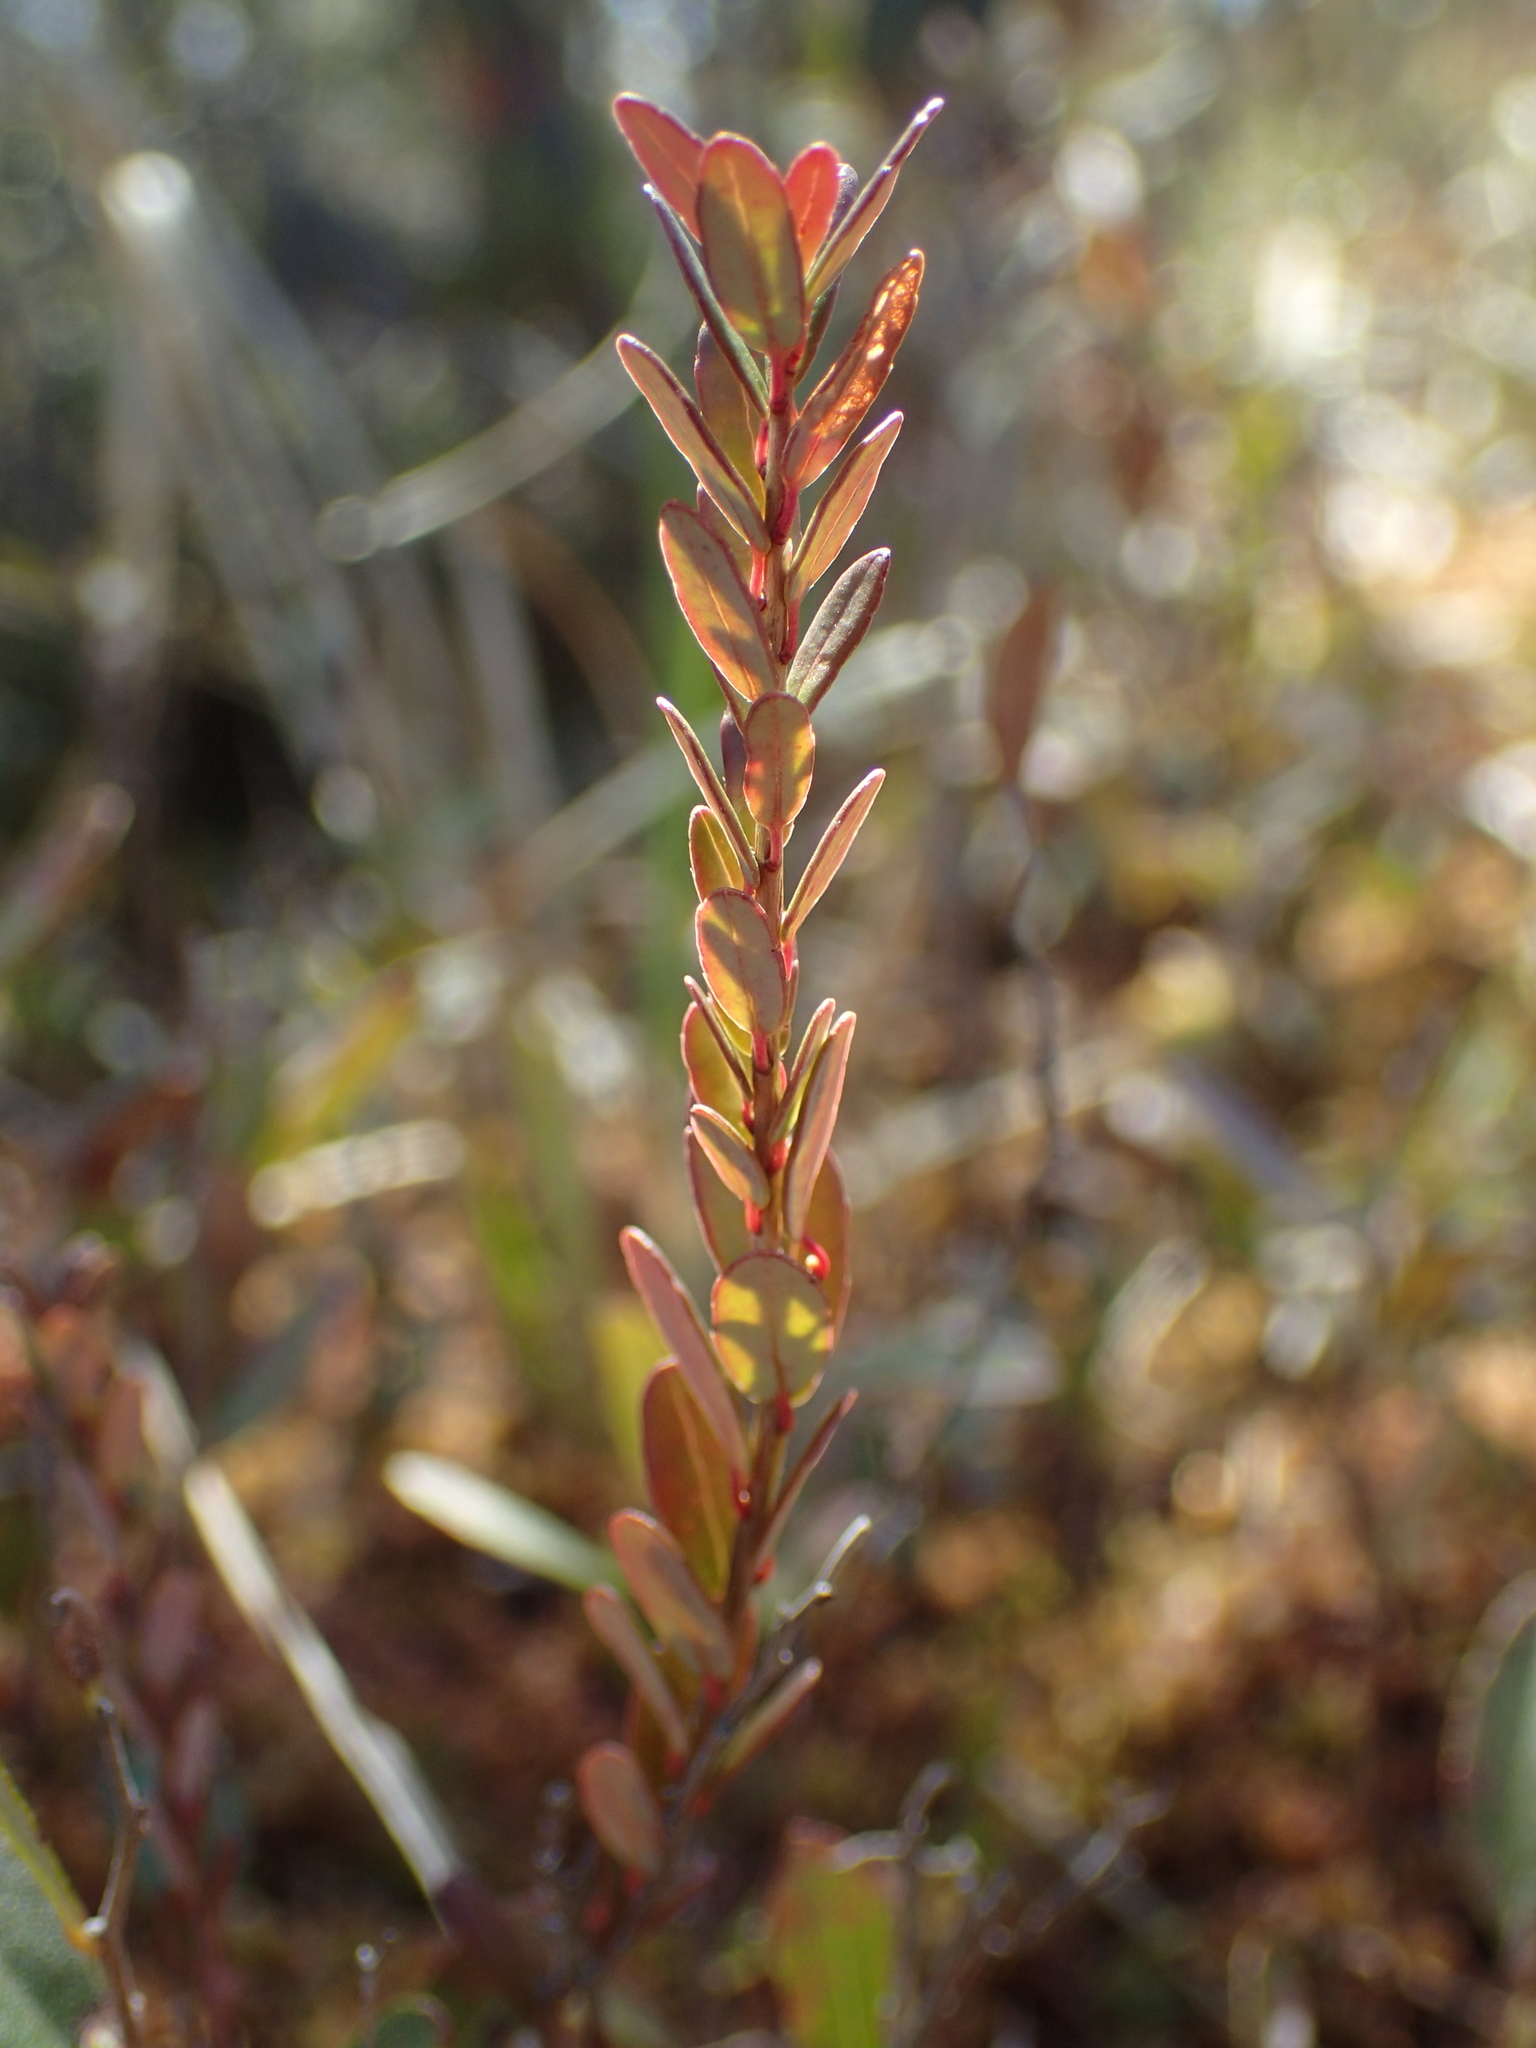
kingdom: Plantae
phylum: Tracheophyta
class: Magnoliopsida
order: Ericales
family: Ericaceae
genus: Vaccinium
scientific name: Vaccinium macrocarpon
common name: American cranberry
